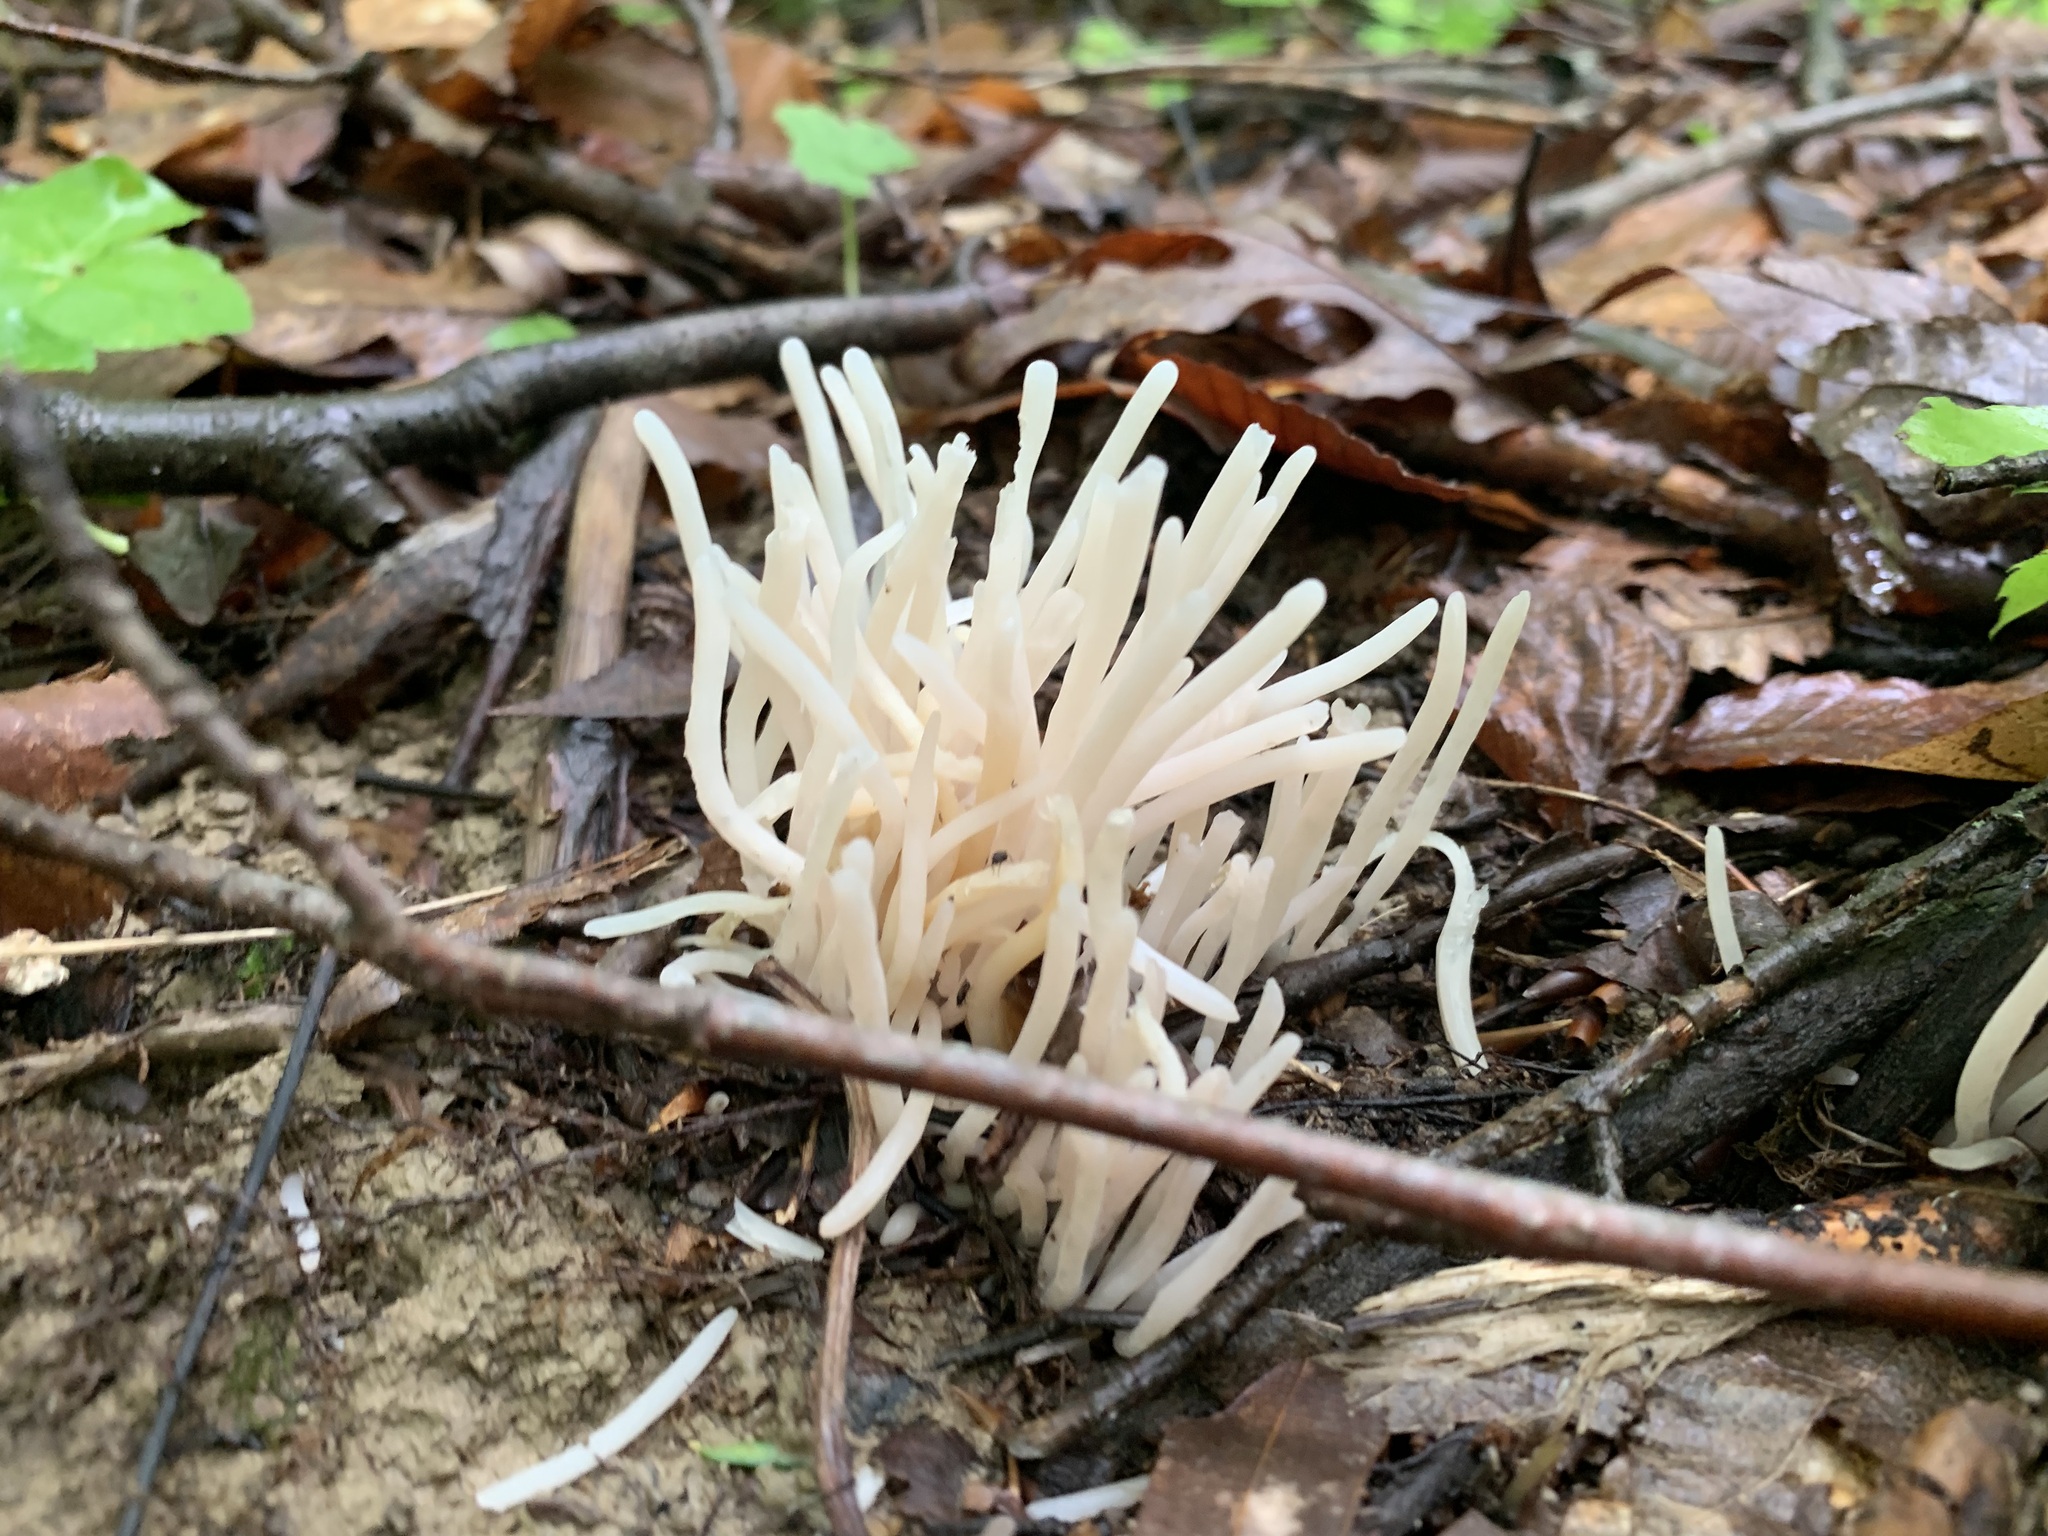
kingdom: Fungi
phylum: Basidiomycota
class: Agaricomycetes
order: Agaricales
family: Clavariaceae
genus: Clavaria
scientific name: Clavaria fragilis
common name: White spindles
